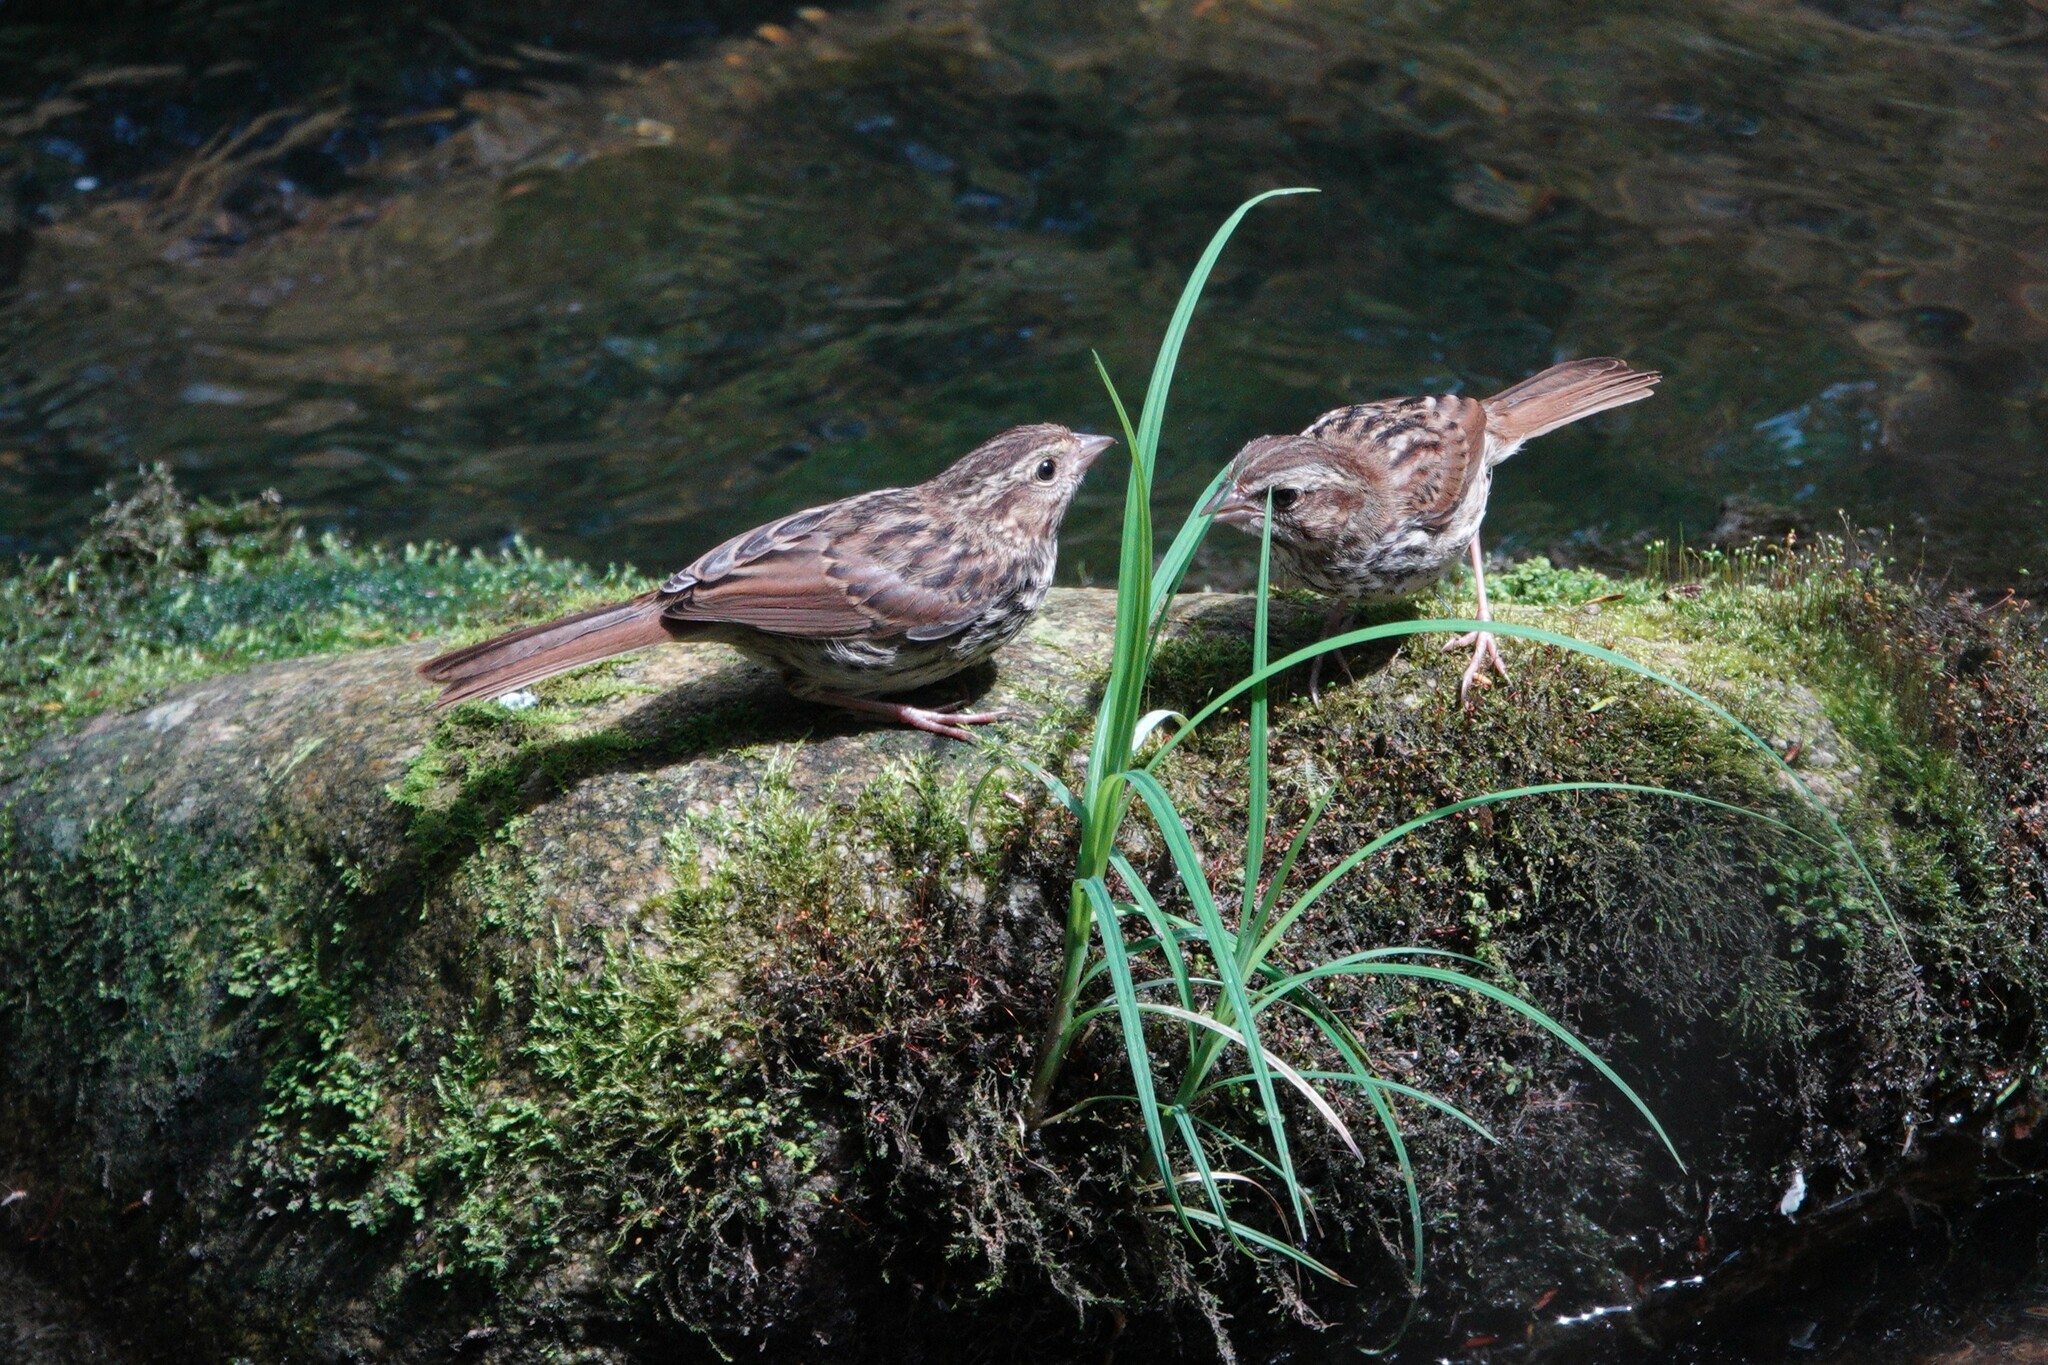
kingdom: Animalia
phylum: Chordata
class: Aves
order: Passeriformes
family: Passerellidae
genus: Melospiza
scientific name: Melospiza melodia
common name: Song sparrow
